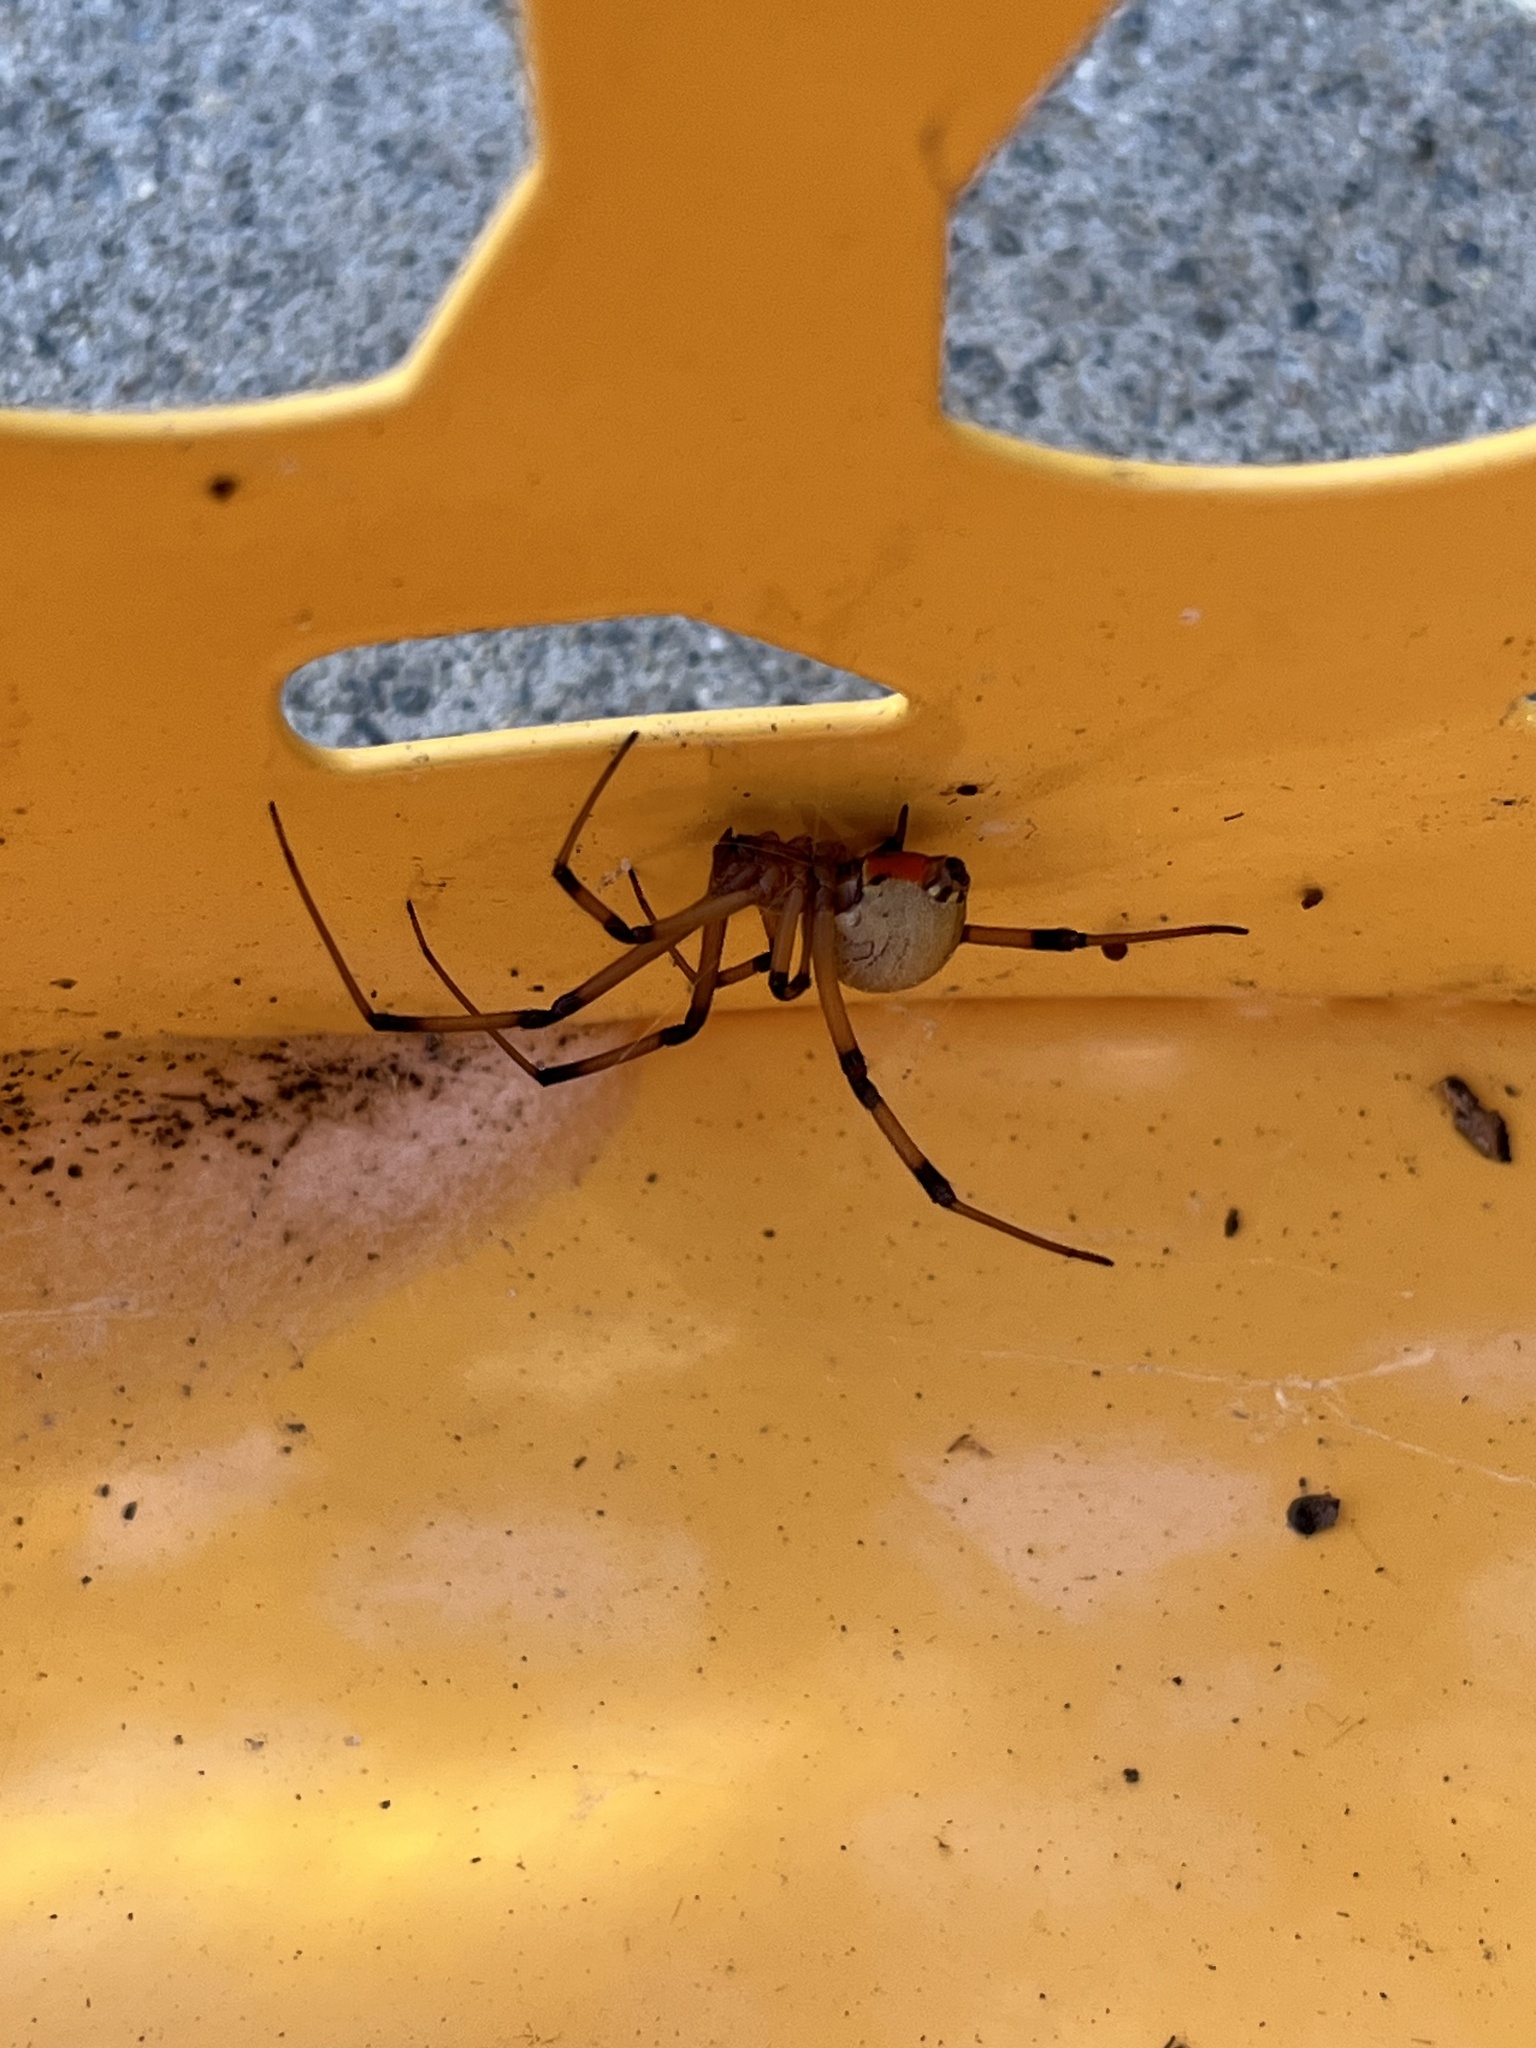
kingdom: Animalia
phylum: Arthropoda
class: Arachnida
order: Araneae
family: Theridiidae
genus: Latrodectus
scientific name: Latrodectus geometricus
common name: Brown widow spider
